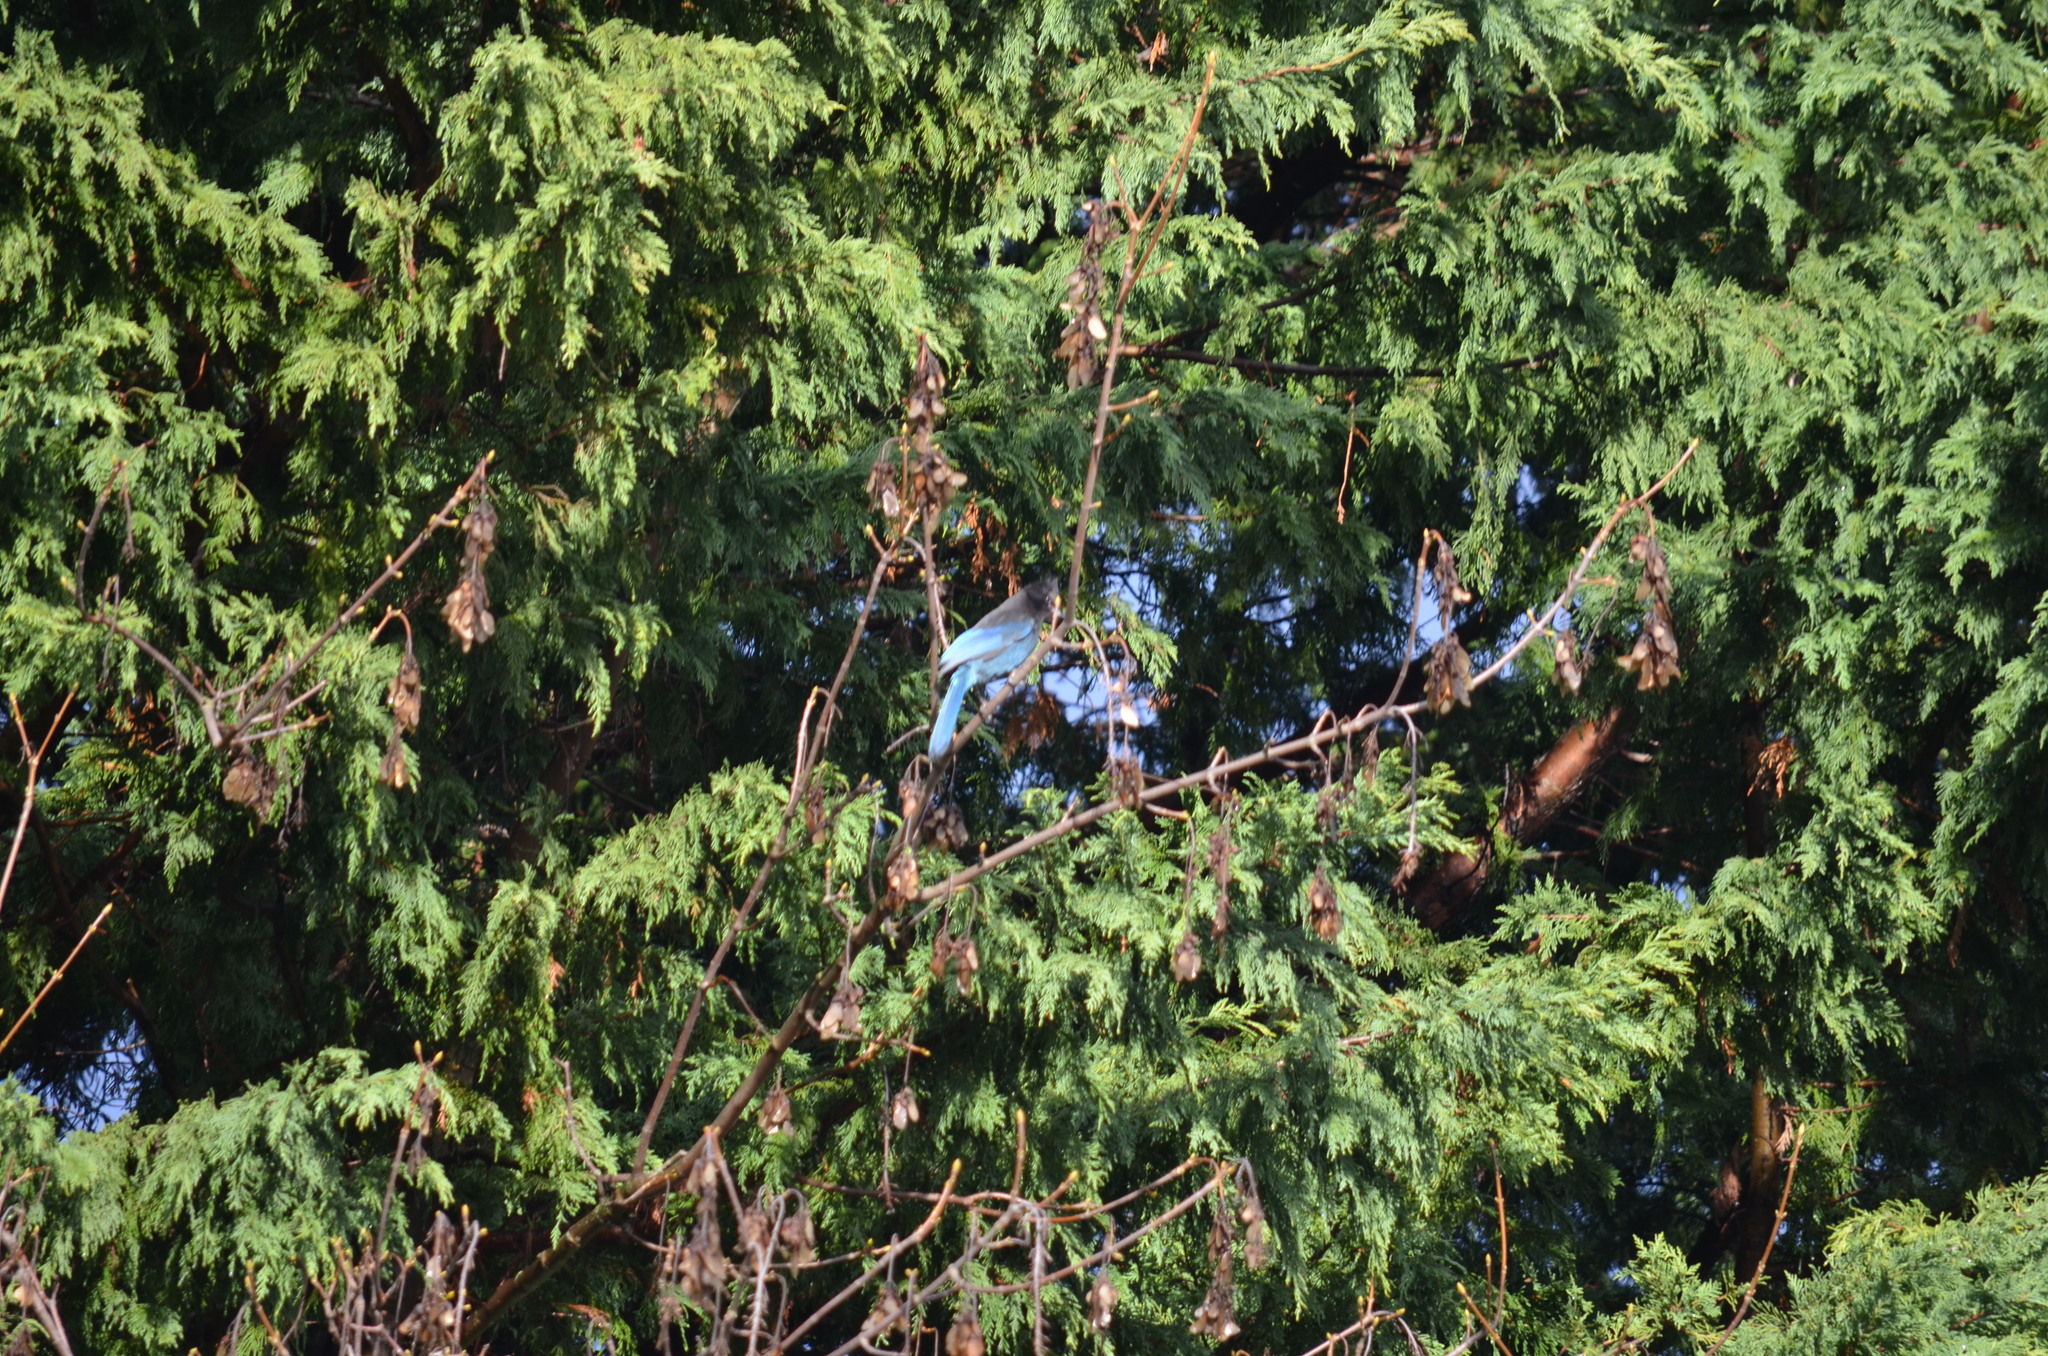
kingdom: Animalia
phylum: Chordata
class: Aves
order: Passeriformes
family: Corvidae
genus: Cyanocitta
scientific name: Cyanocitta stelleri
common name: Steller's jay
